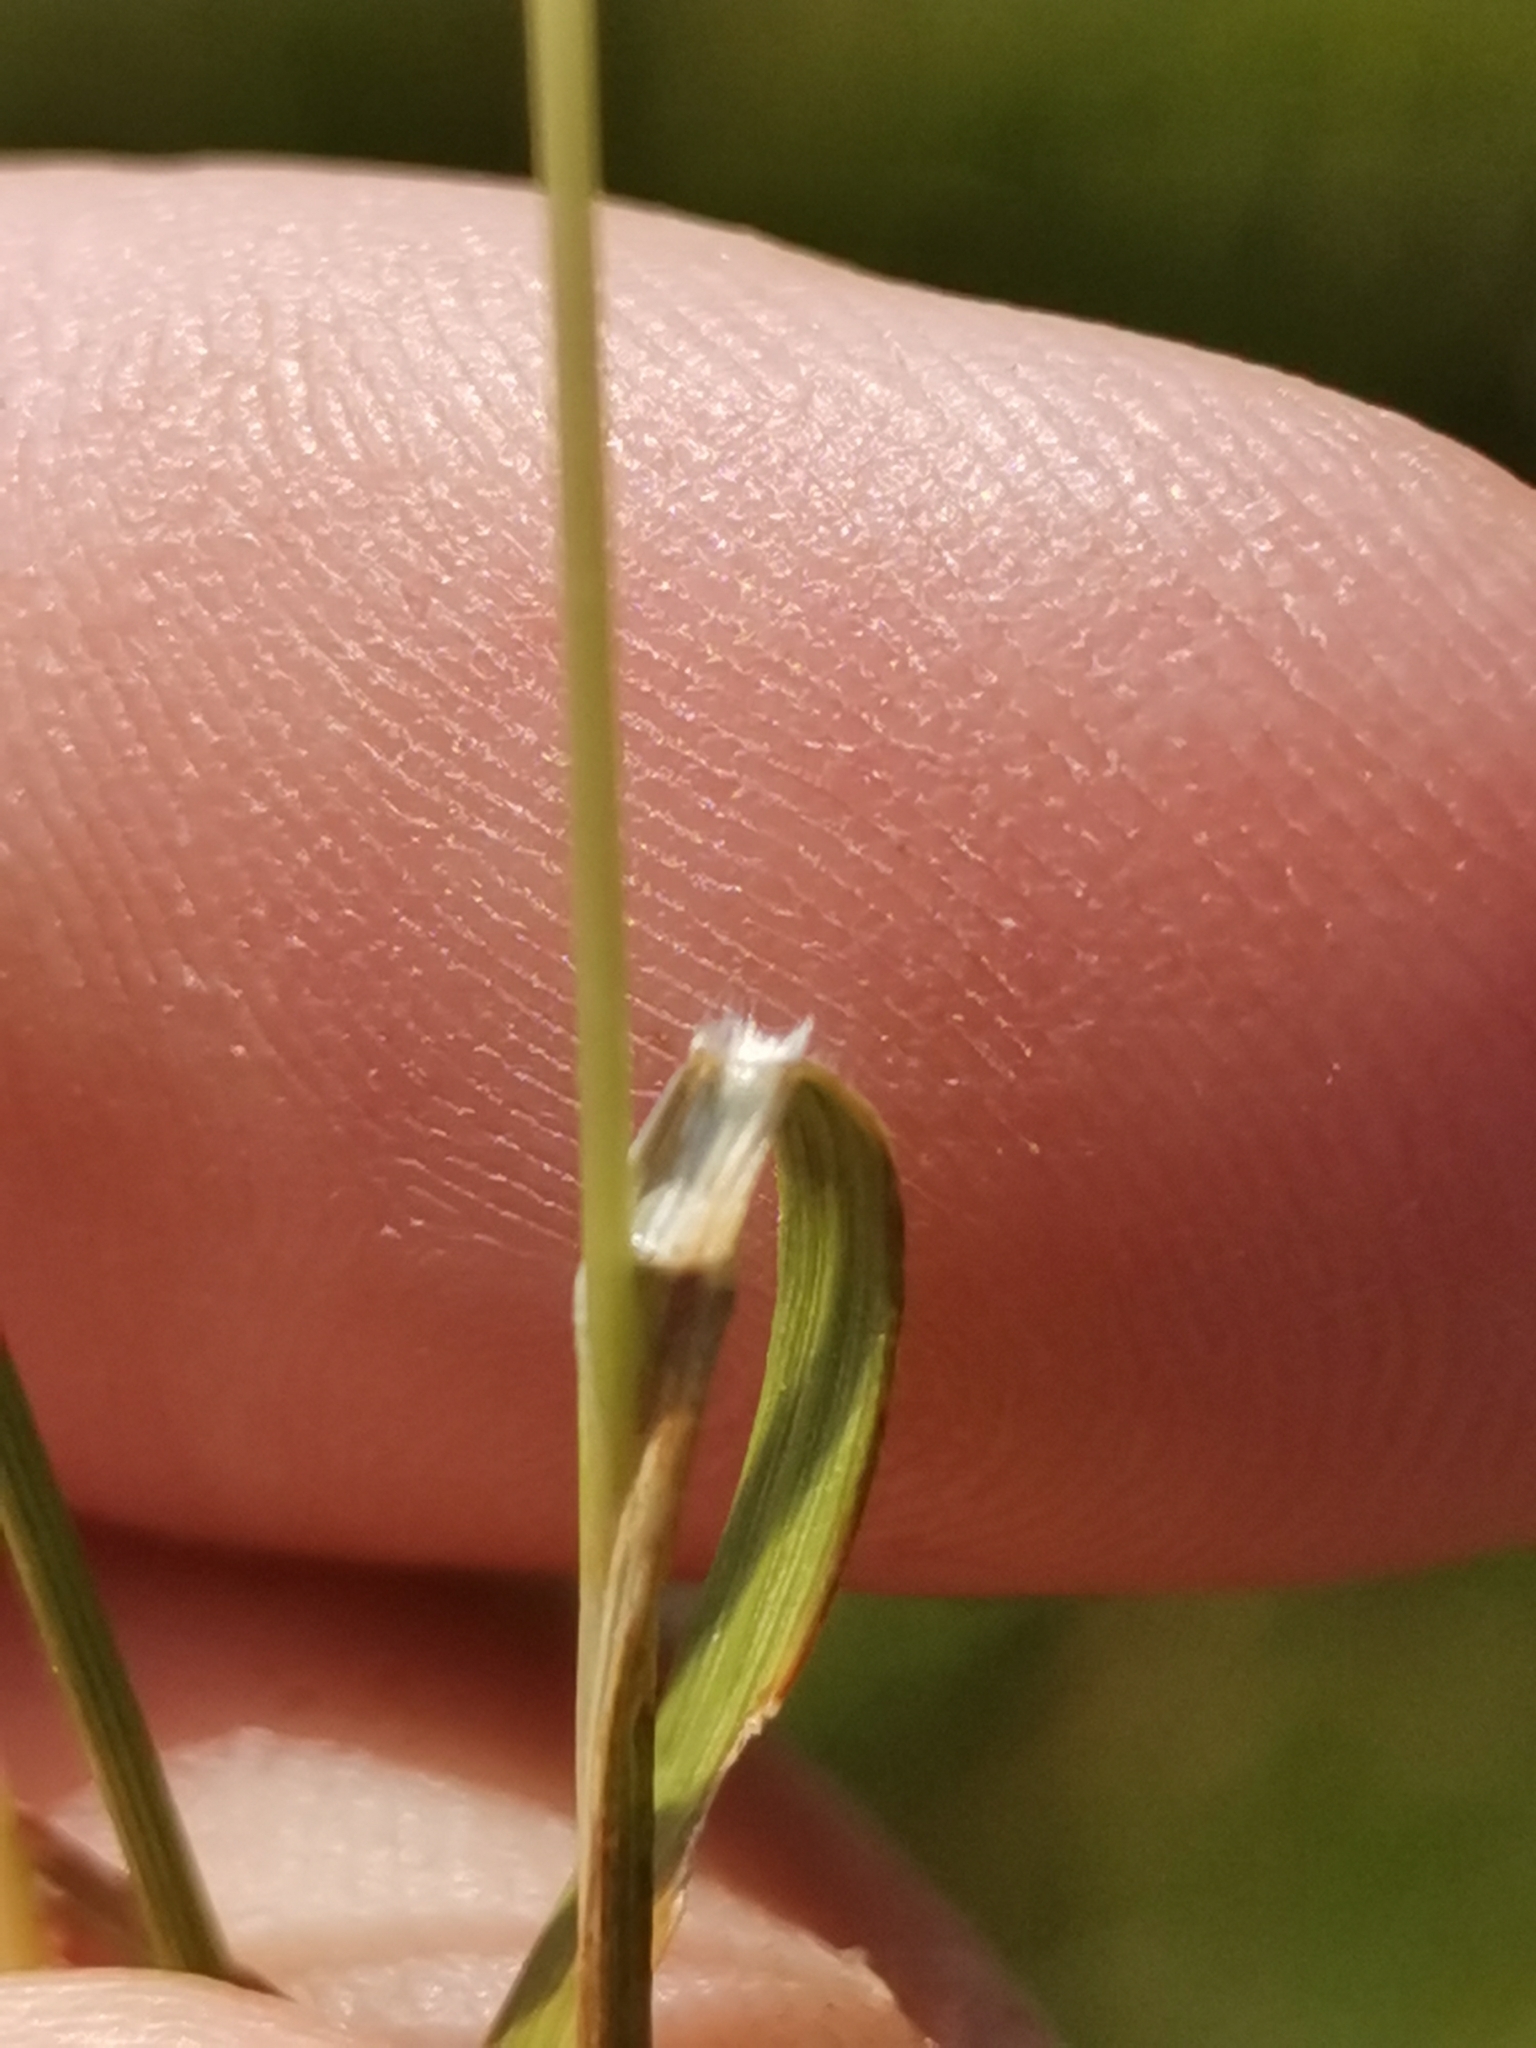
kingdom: Plantae
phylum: Tracheophyta
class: Liliopsida
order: Poales
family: Poaceae
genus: Danthonia
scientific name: Danthonia alpina
